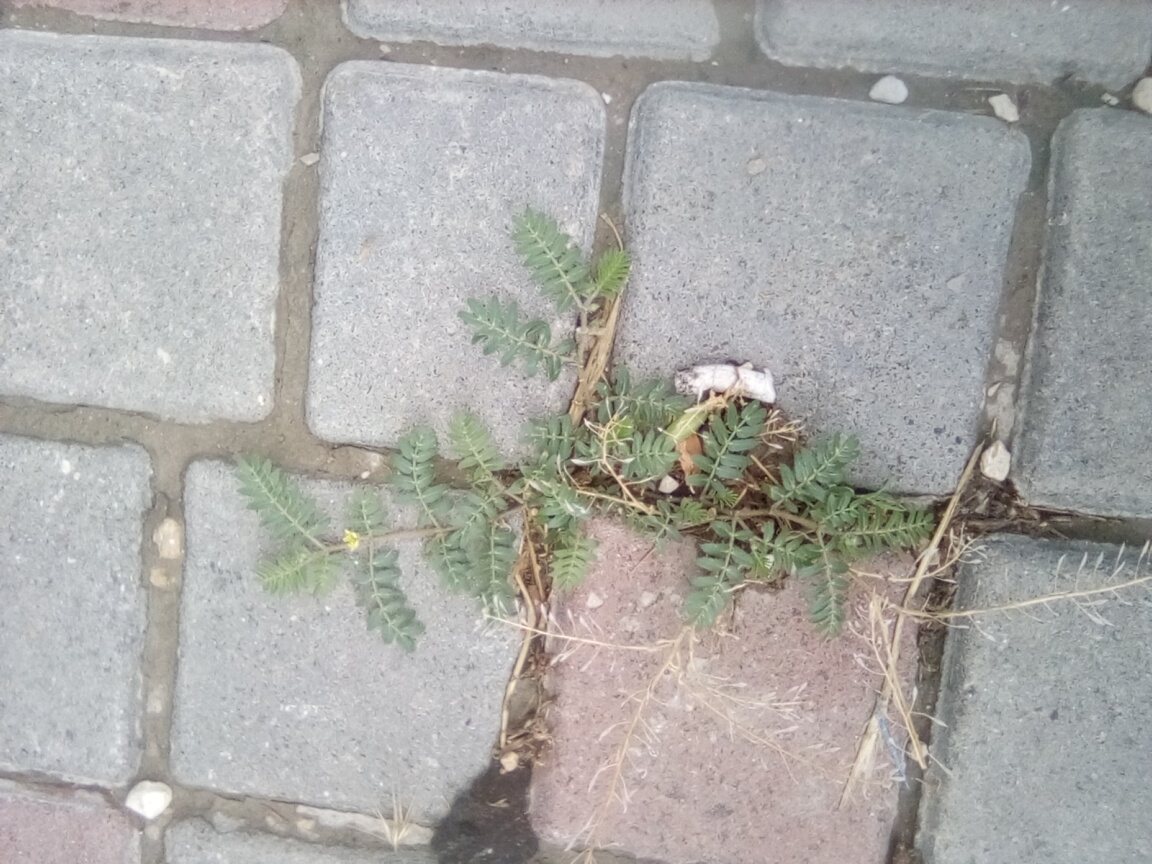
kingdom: Plantae
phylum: Tracheophyta
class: Magnoliopsida
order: Zygophyllales
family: Zygophyllaceae
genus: Tribulus
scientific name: Tribulus terrestris
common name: Puncturevine
